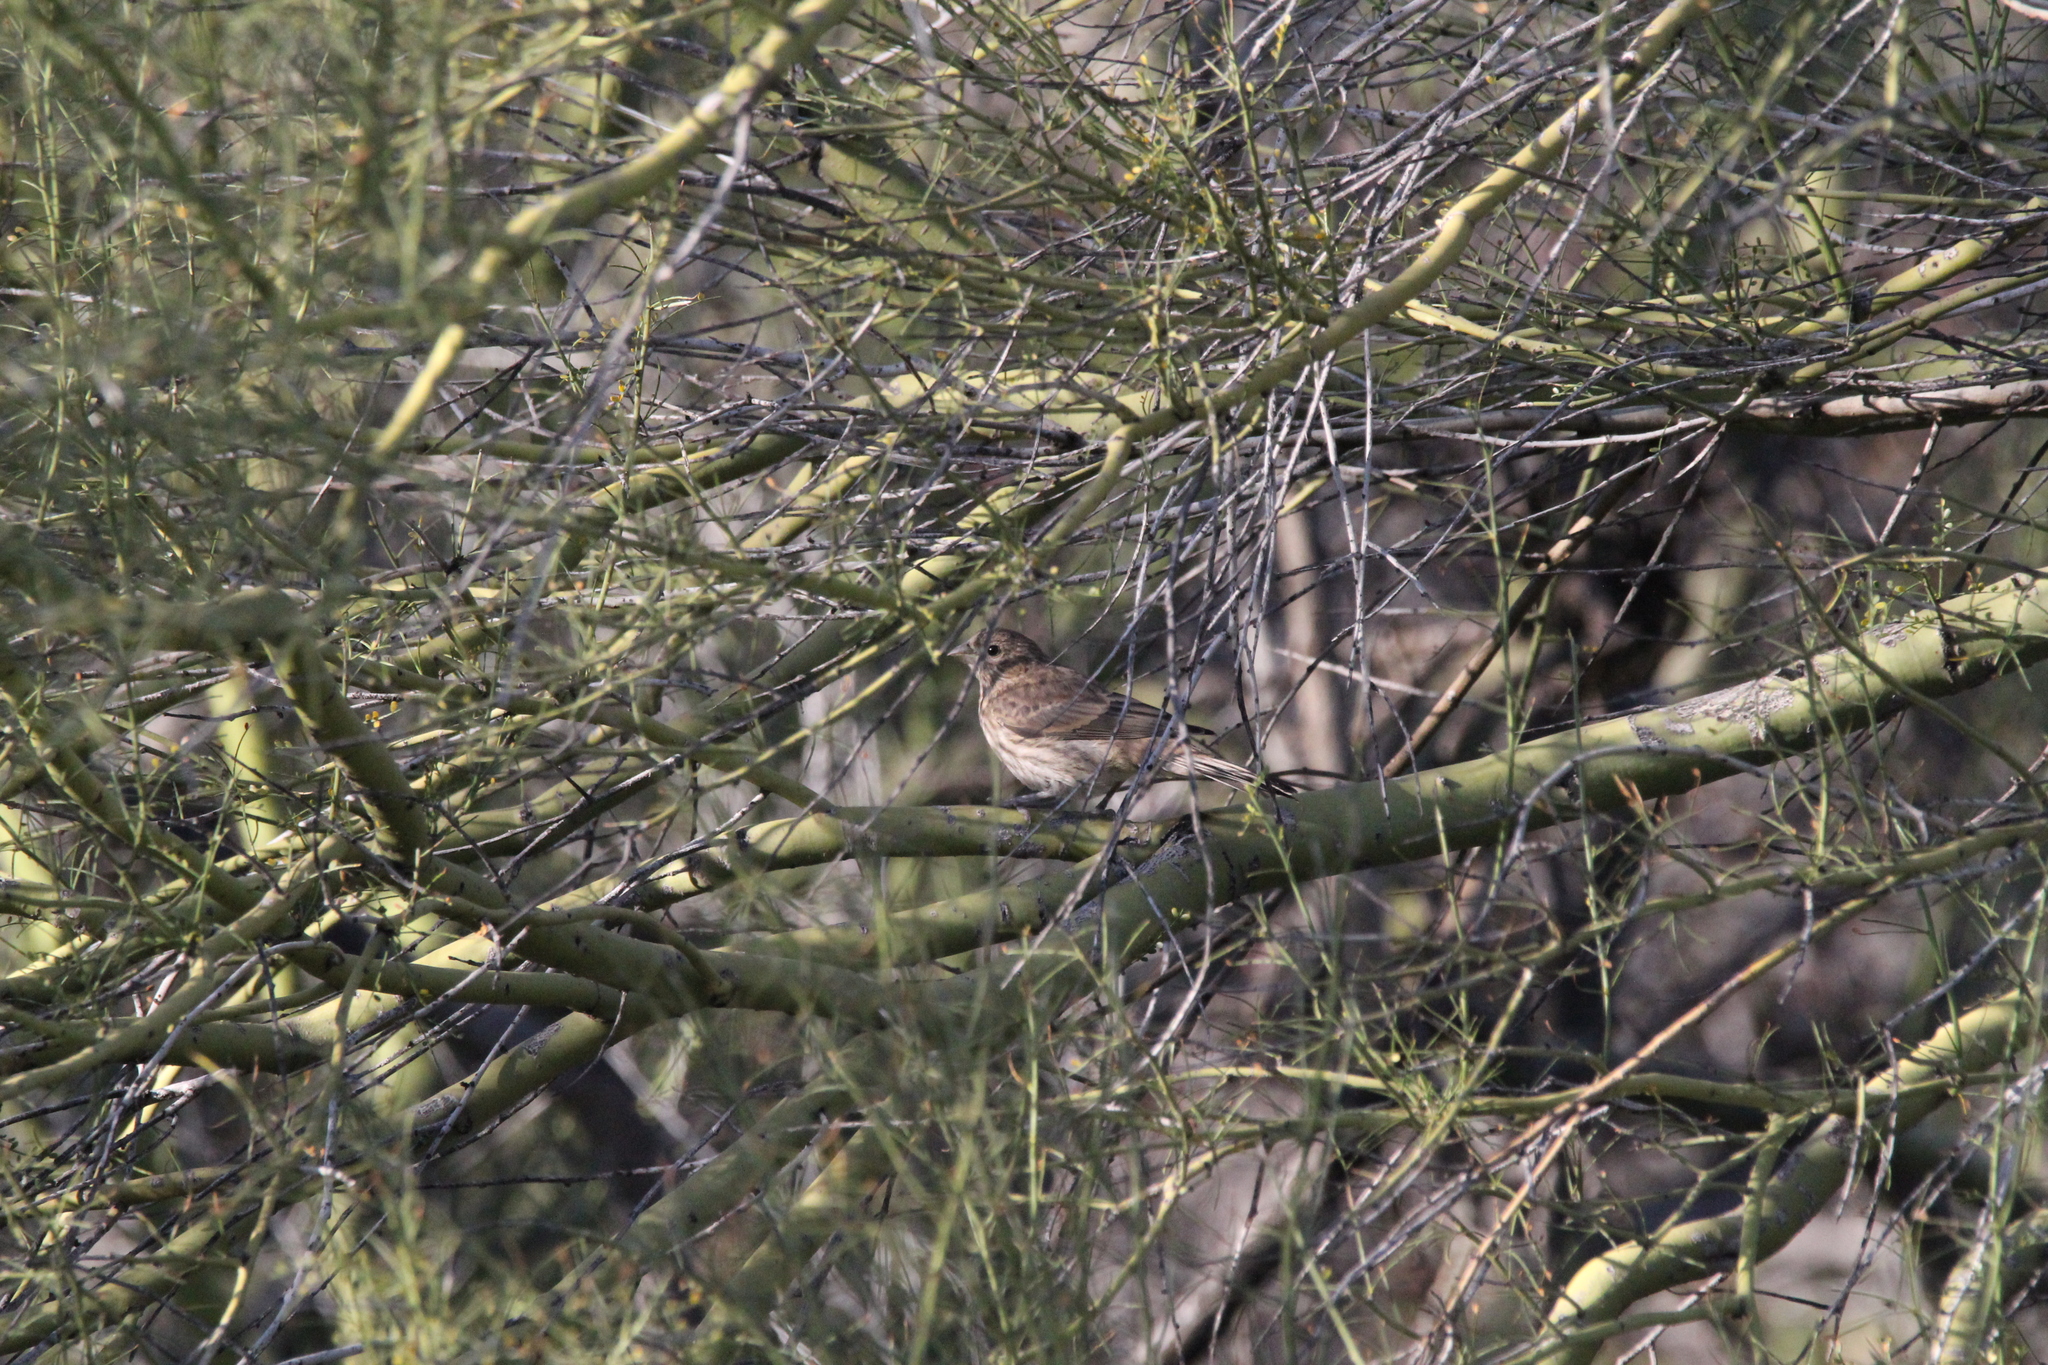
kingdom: Animalia
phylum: Chordata
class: Aves
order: Passeriformes
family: Fringillidae
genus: Haemorhous
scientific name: Haemorhous mexicanus
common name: House finch
